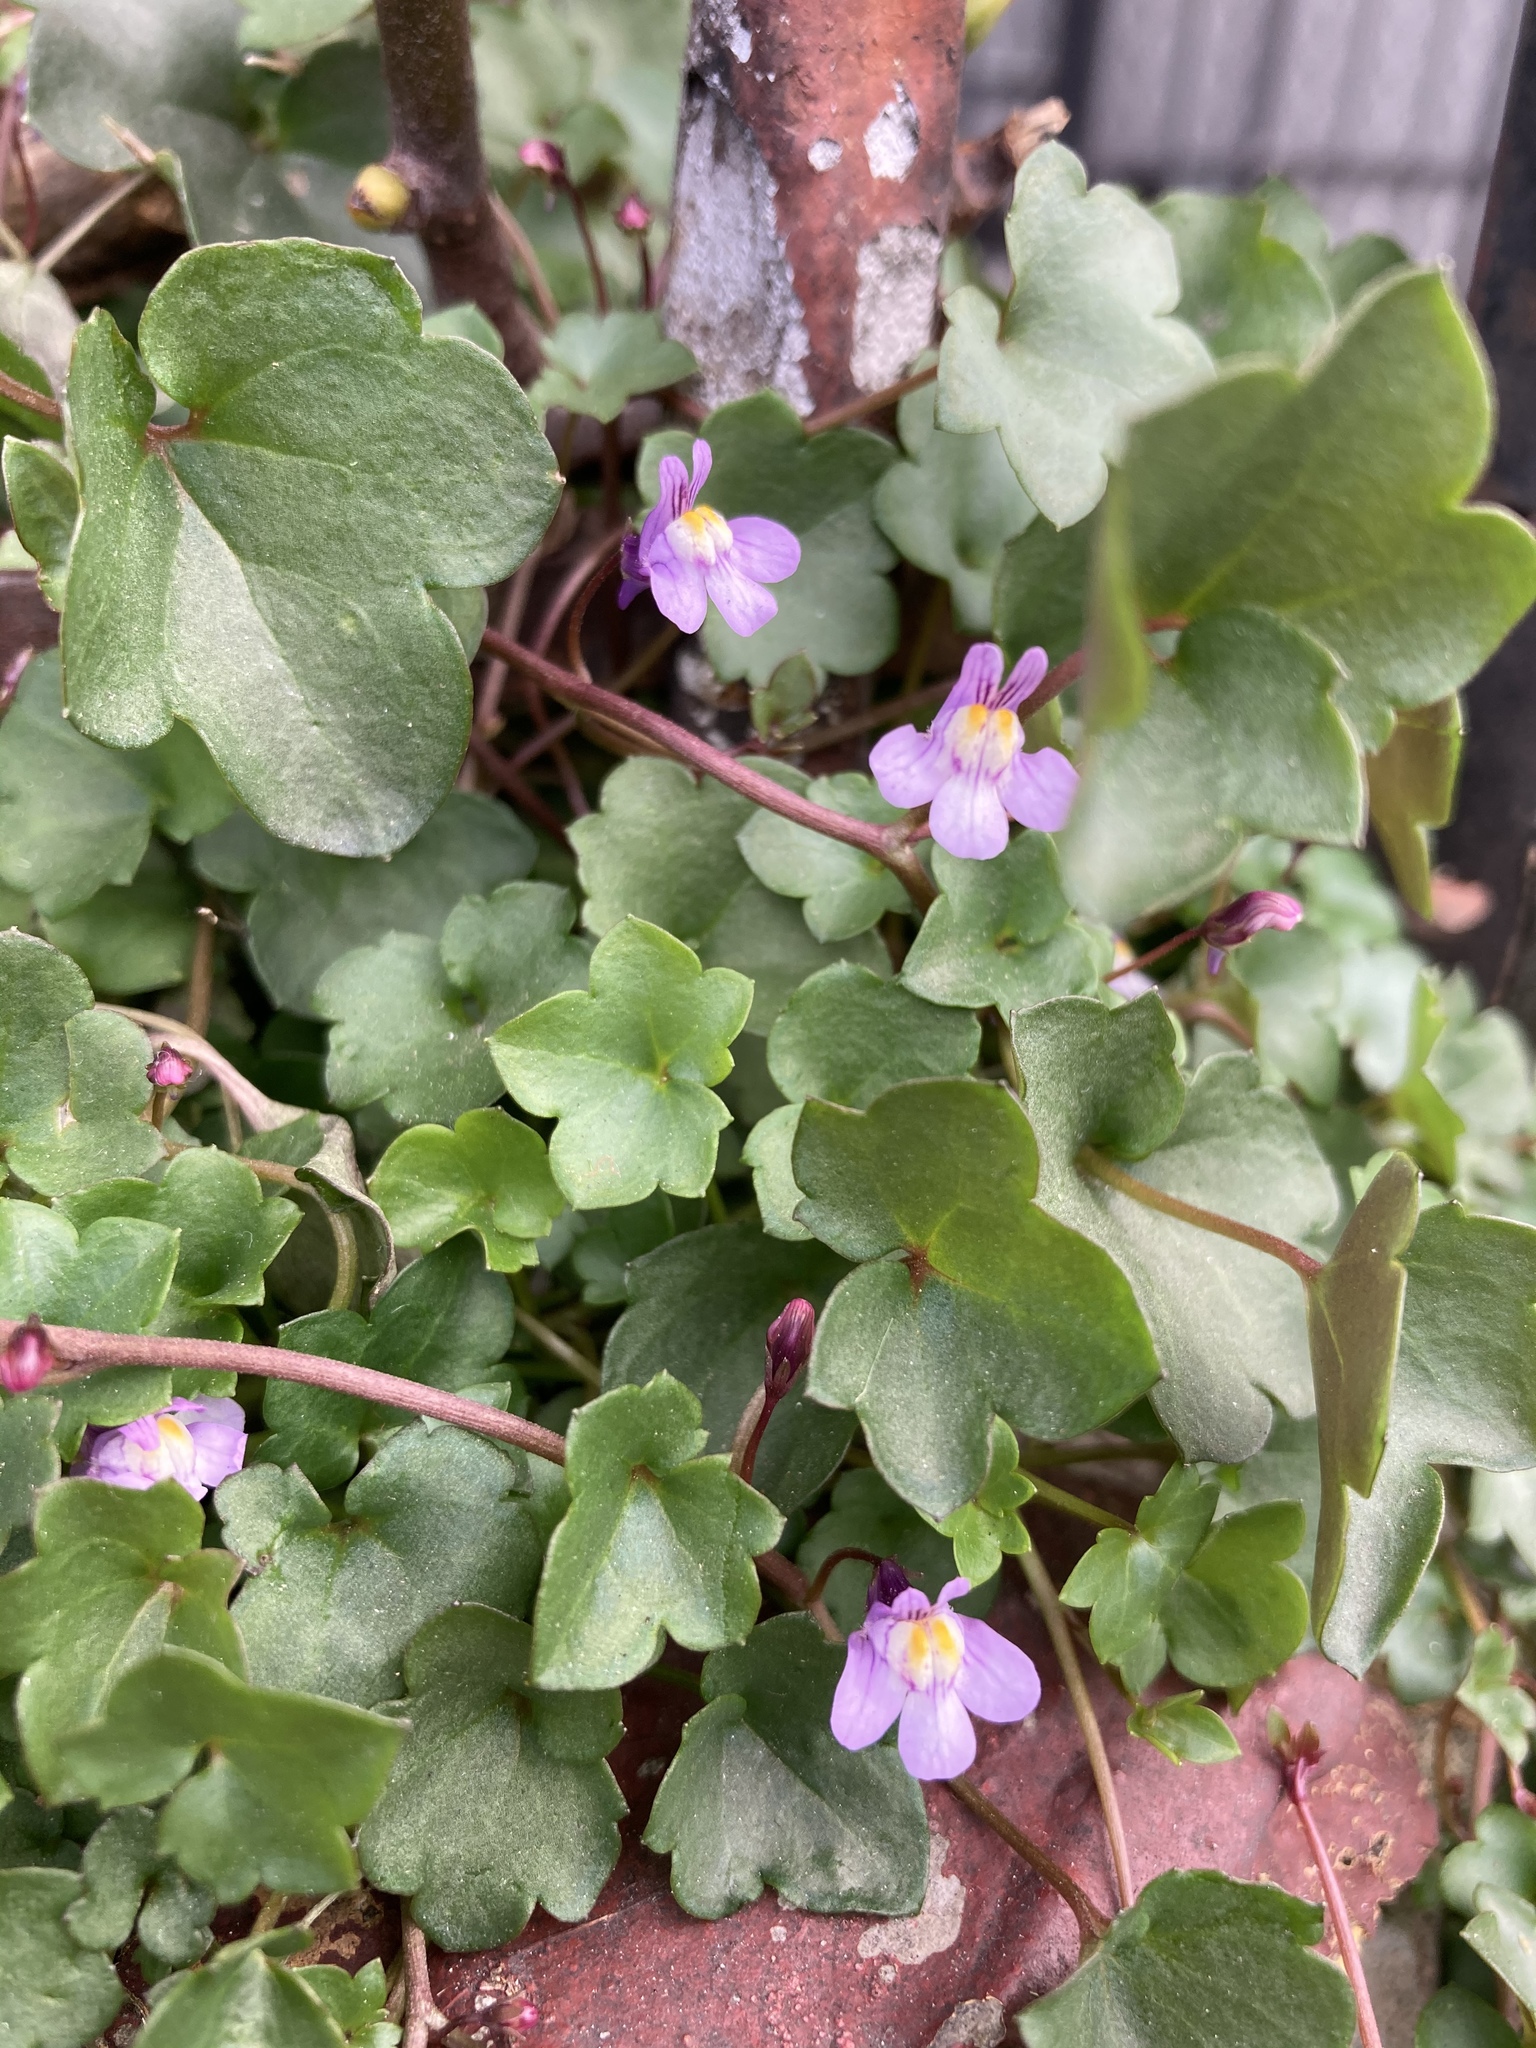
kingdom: Plantae
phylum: Tracheophyta
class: Magnoliopsida
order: Lamiales
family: Plantaginaceae
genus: Cymbalaria
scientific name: Cymbalaria muralis
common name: Ivy-leaved toadflax
